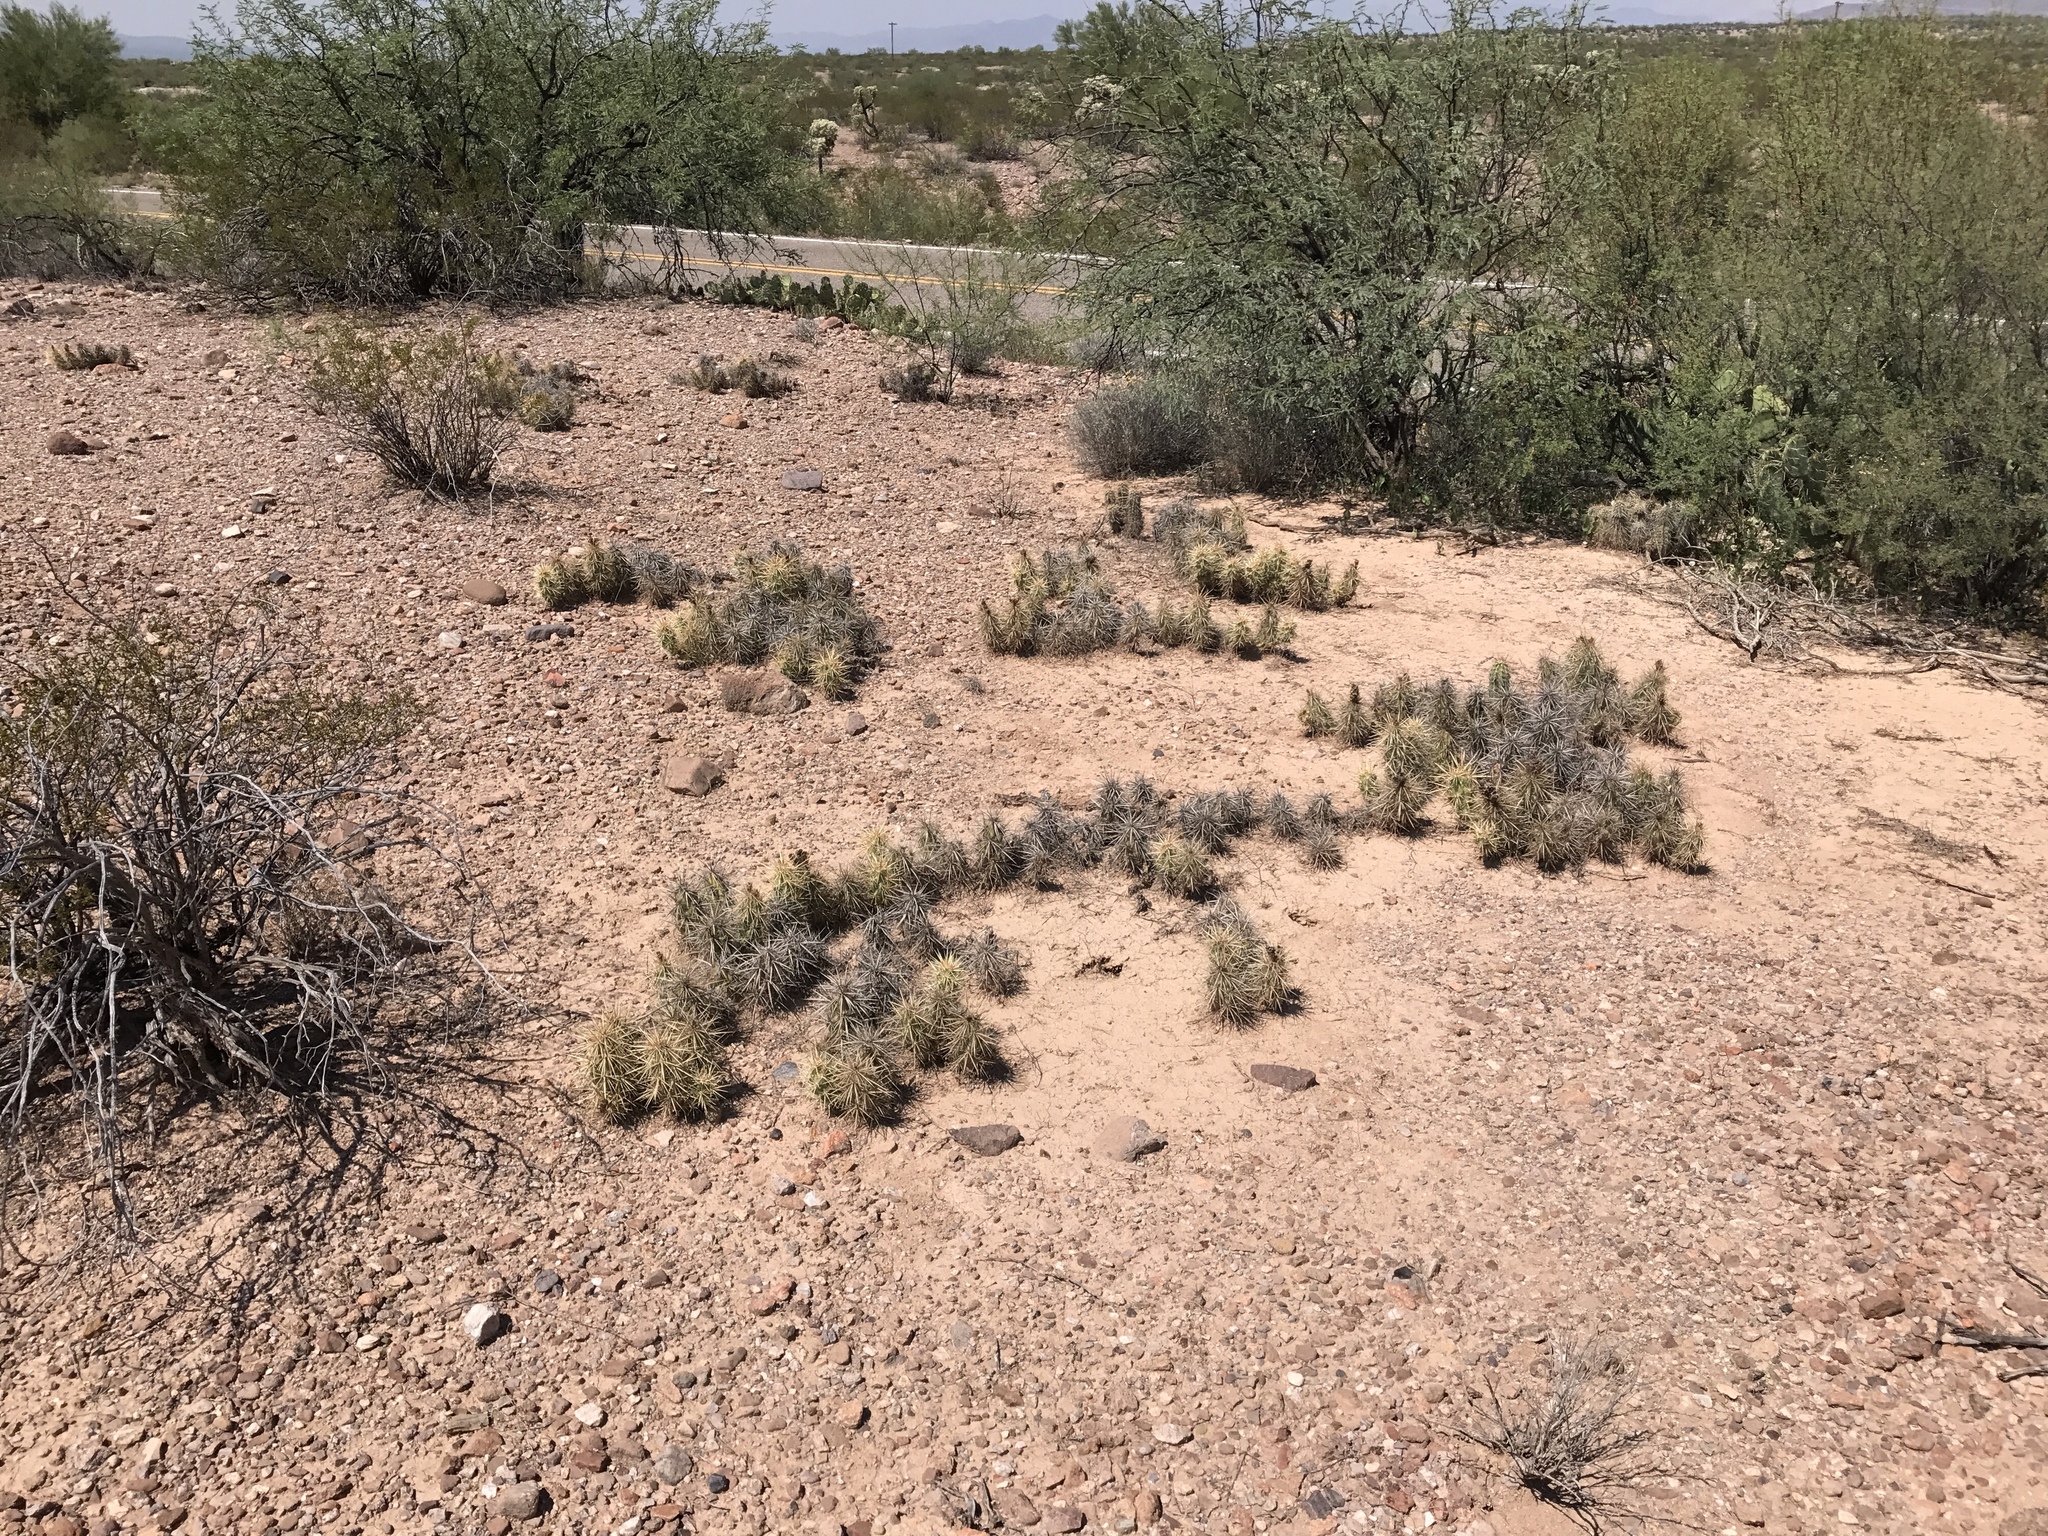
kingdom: Plantae
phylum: Tracheophyta
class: Magnoliopsida
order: Caryophyllales
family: Cactaceae
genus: Grusonia
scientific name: Grusonia emoryi
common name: Stanly's club cholla
